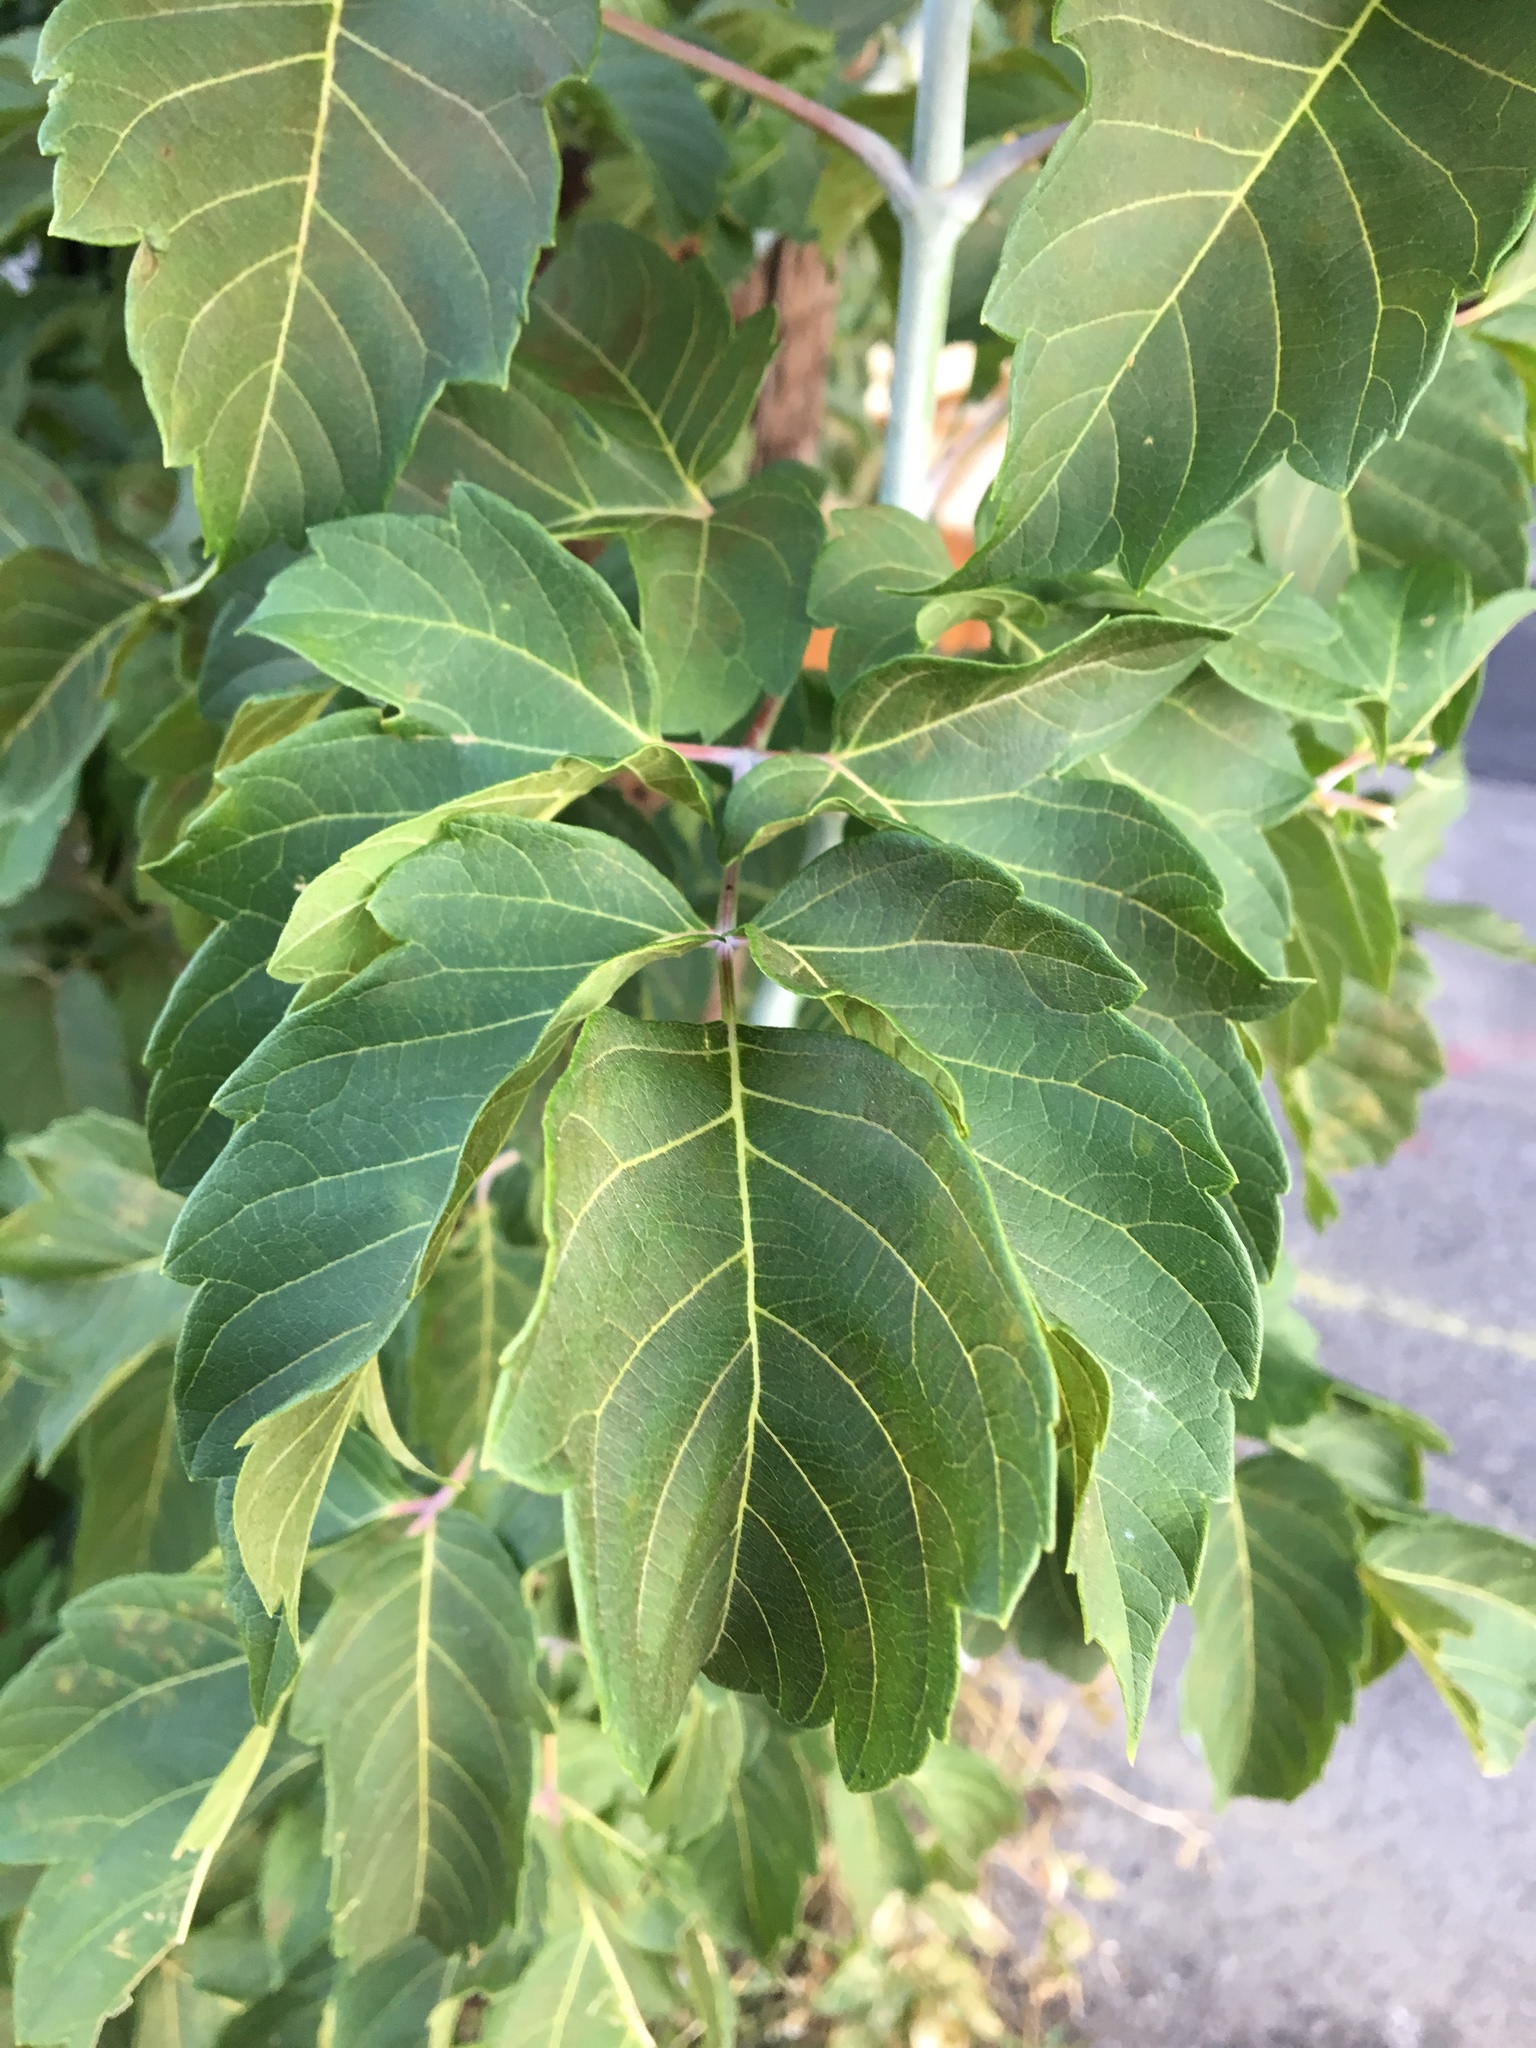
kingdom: Plantae
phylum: Tracheophyta
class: Magnoliopsida
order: Sapindales
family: Sapindaceae
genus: Acer
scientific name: Acer negundo
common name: Ashleaf maple
